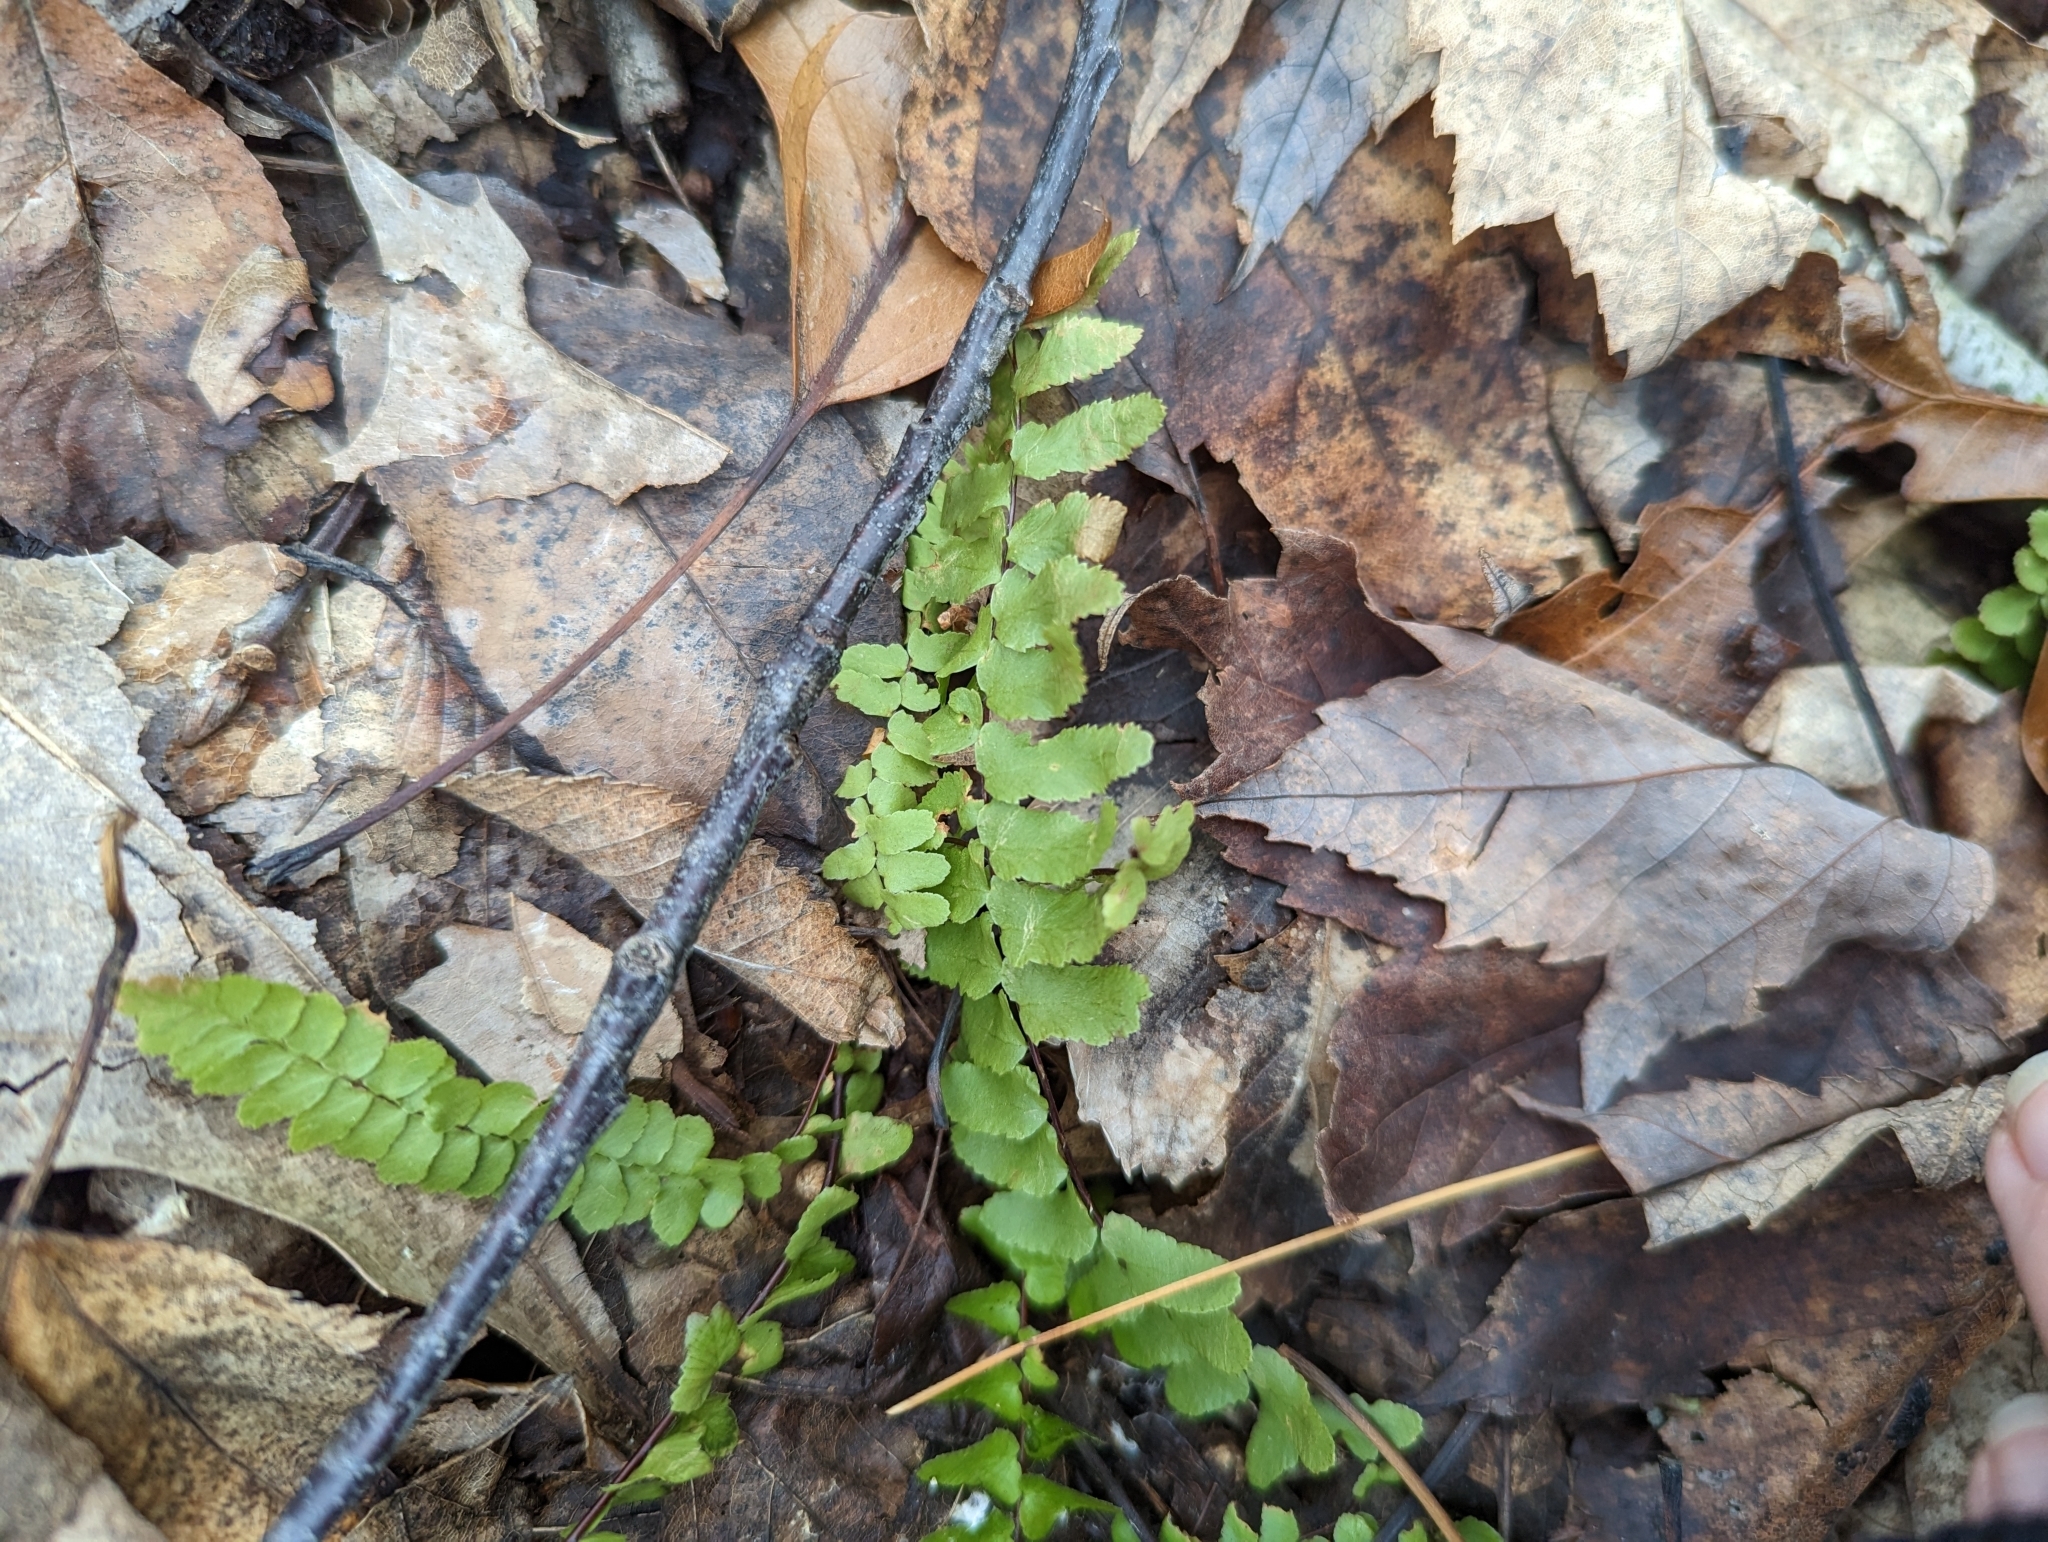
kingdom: Plantae
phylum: Tracheophyta
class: Polypodiopsida
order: Polypodiales
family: Aspleniaceae
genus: Asplenium
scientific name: Asplenium platyneuron
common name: Ebony spleenwort
